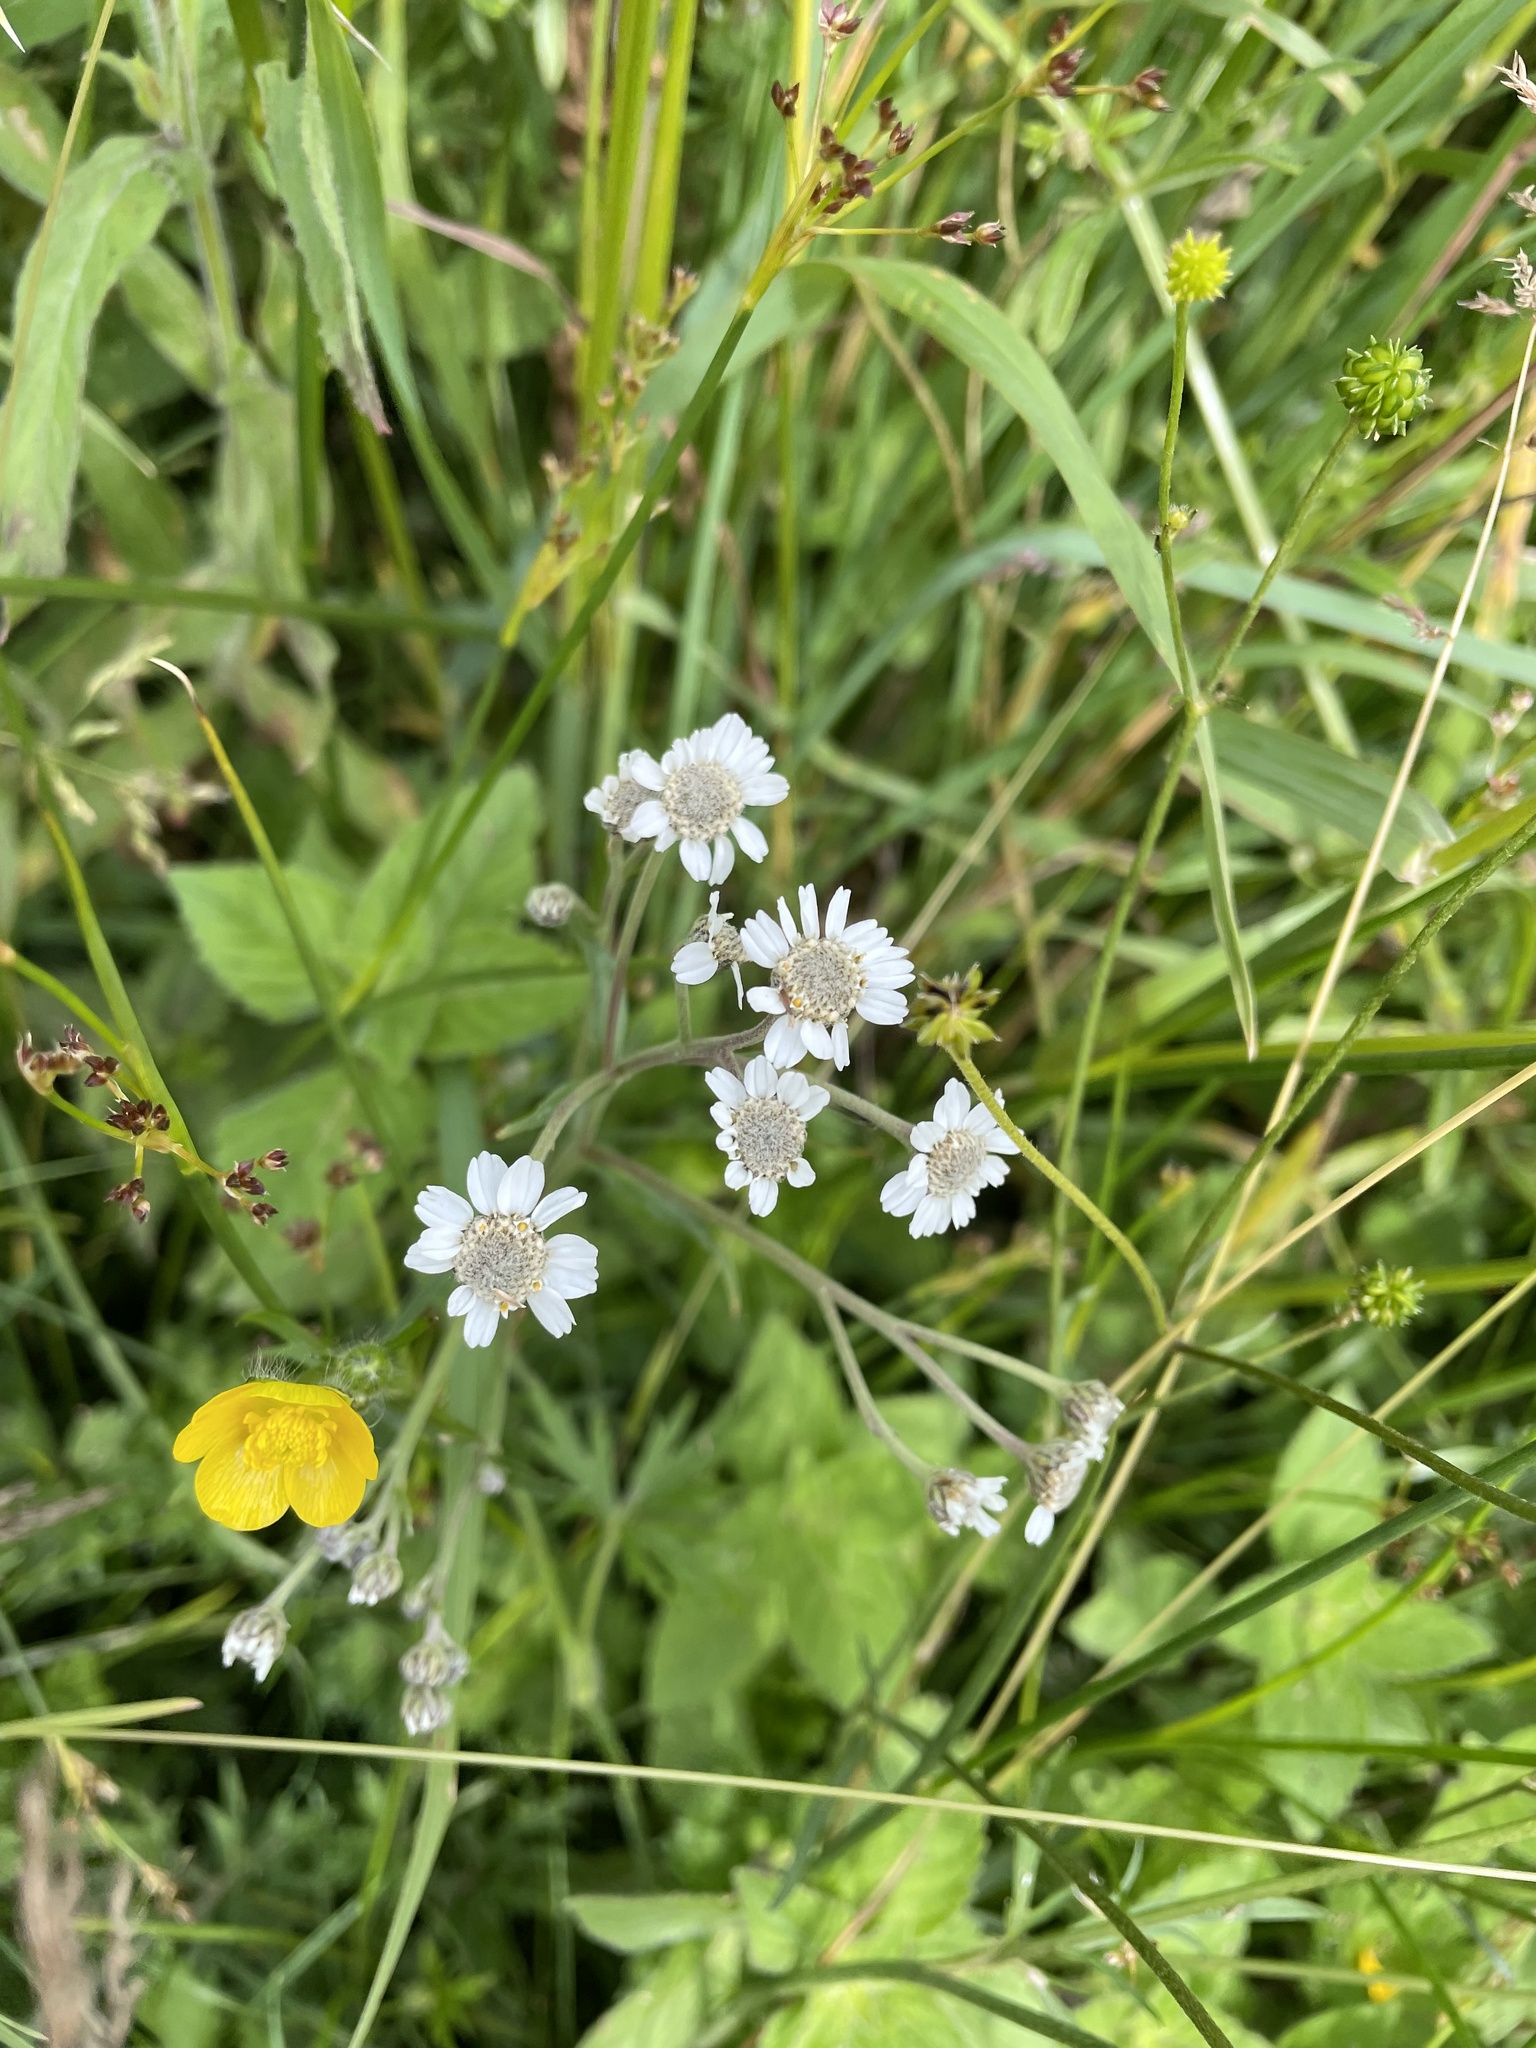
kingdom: Plantae
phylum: Tracheophyta
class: Magnoliopsida
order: Asterales
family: Asteraceae
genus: Achillea
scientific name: Achillea ptarmica
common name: Sneezeweed
